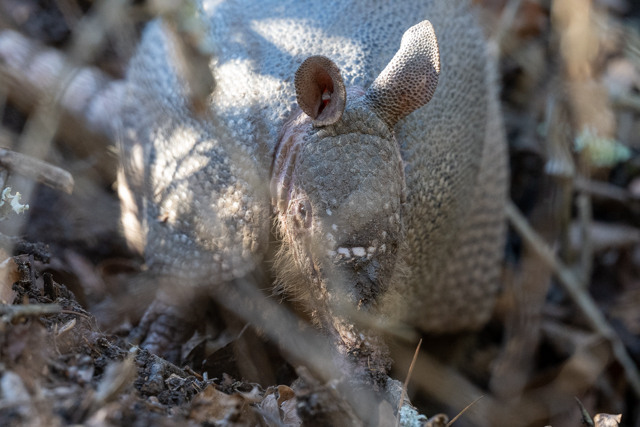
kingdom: Animalia
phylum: Chordata
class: Mammalia
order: Cingulata
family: Dasypodidae
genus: Dasypus
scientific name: Dasypus novemcinctus
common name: Nine-banded armadillo
